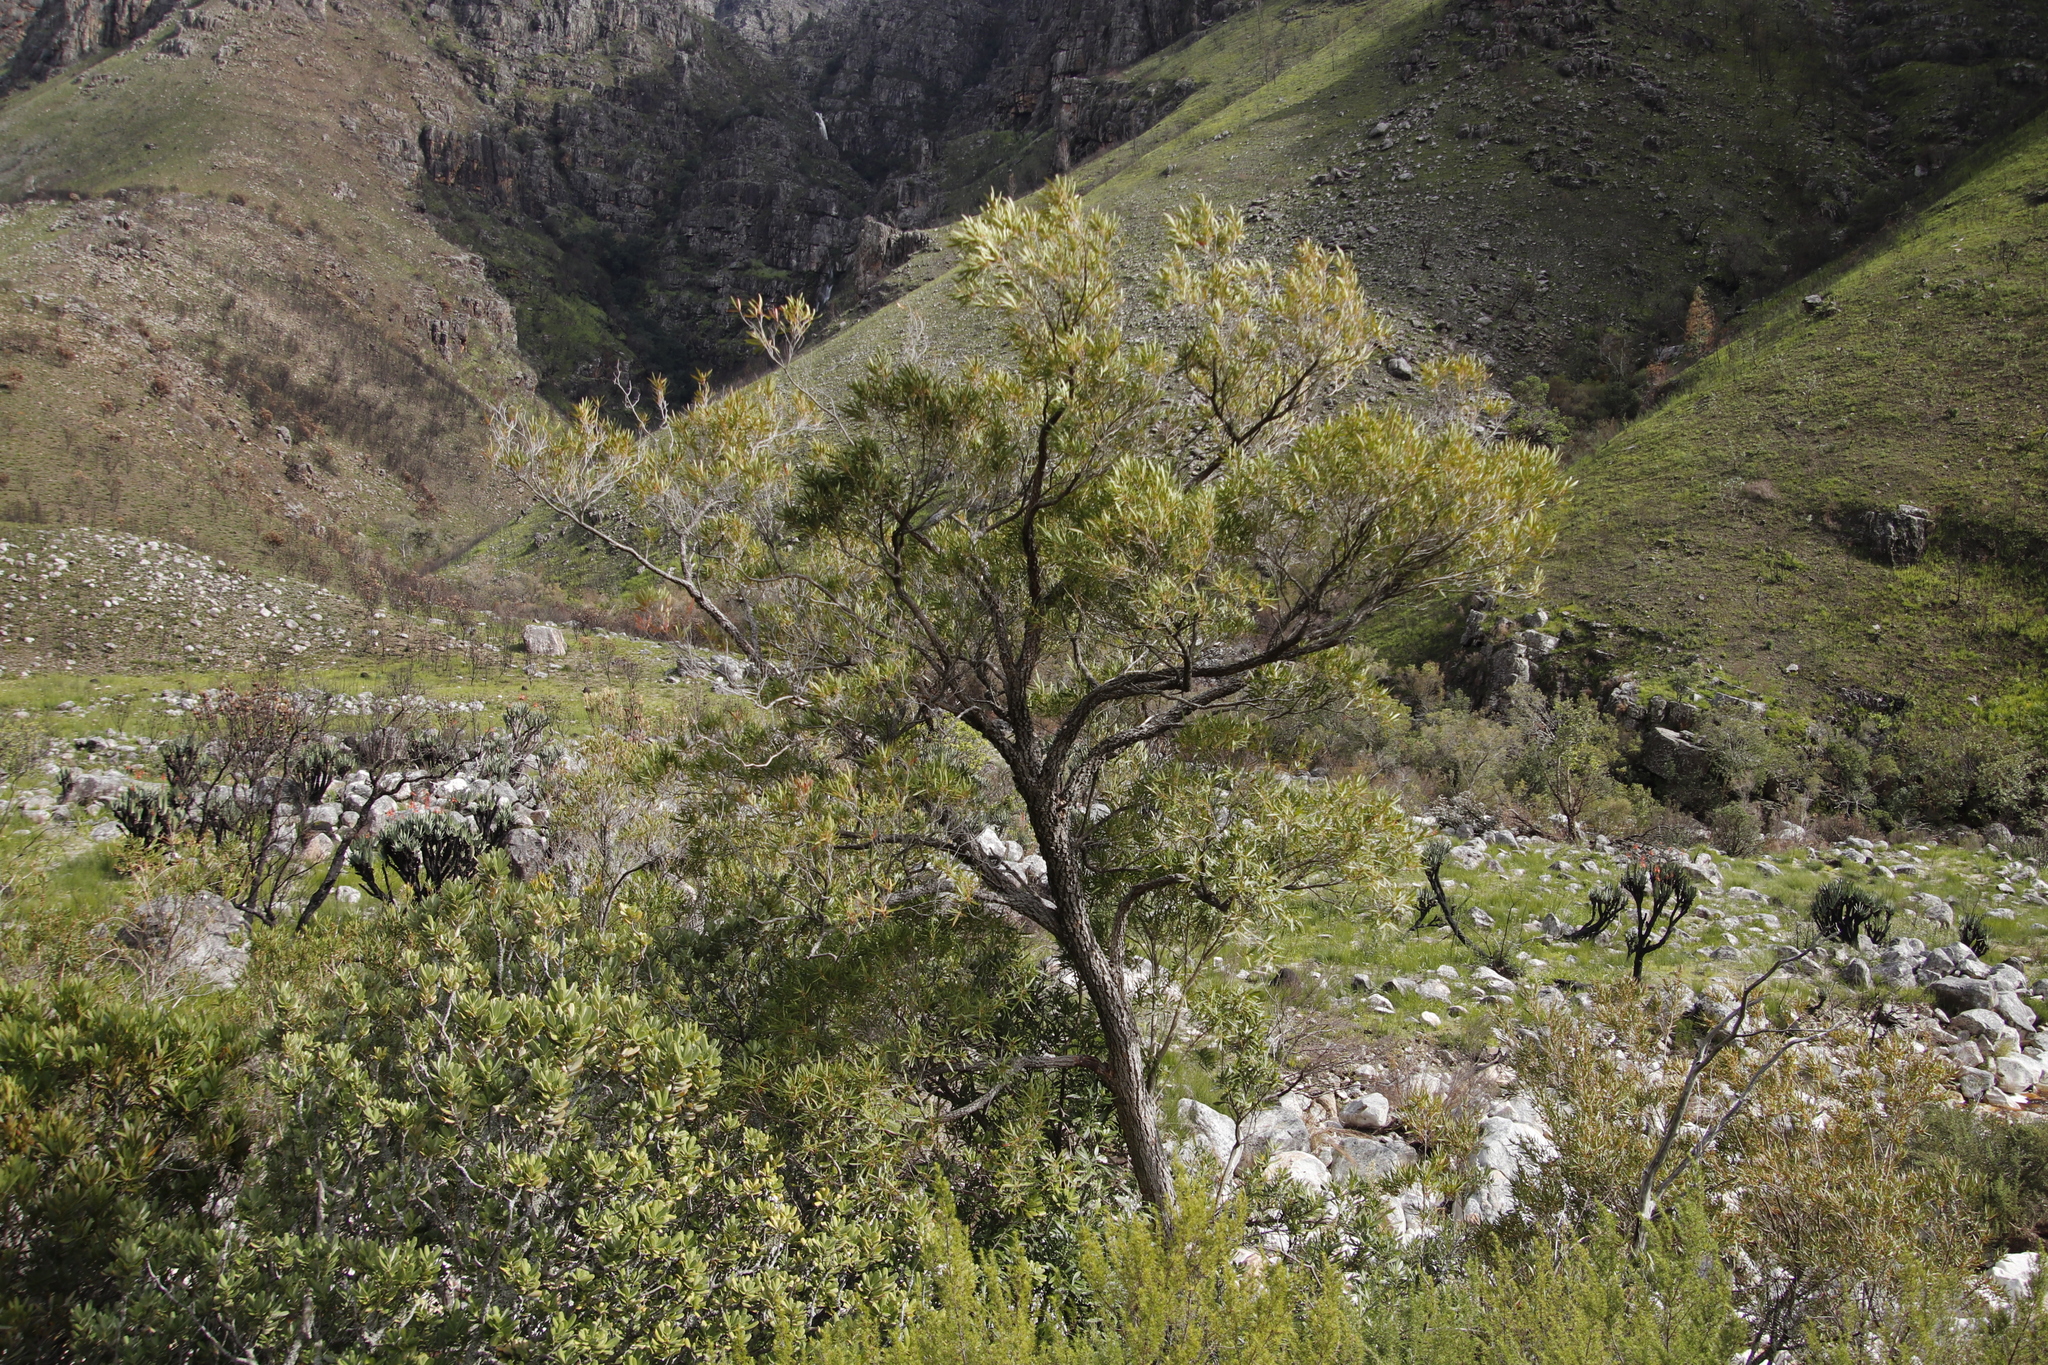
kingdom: Plantae
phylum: Tracheophyta
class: Magnoliopsida
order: Myrtales
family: Myrtaceae
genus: Callistemon
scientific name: Callistemon lanceolatus
